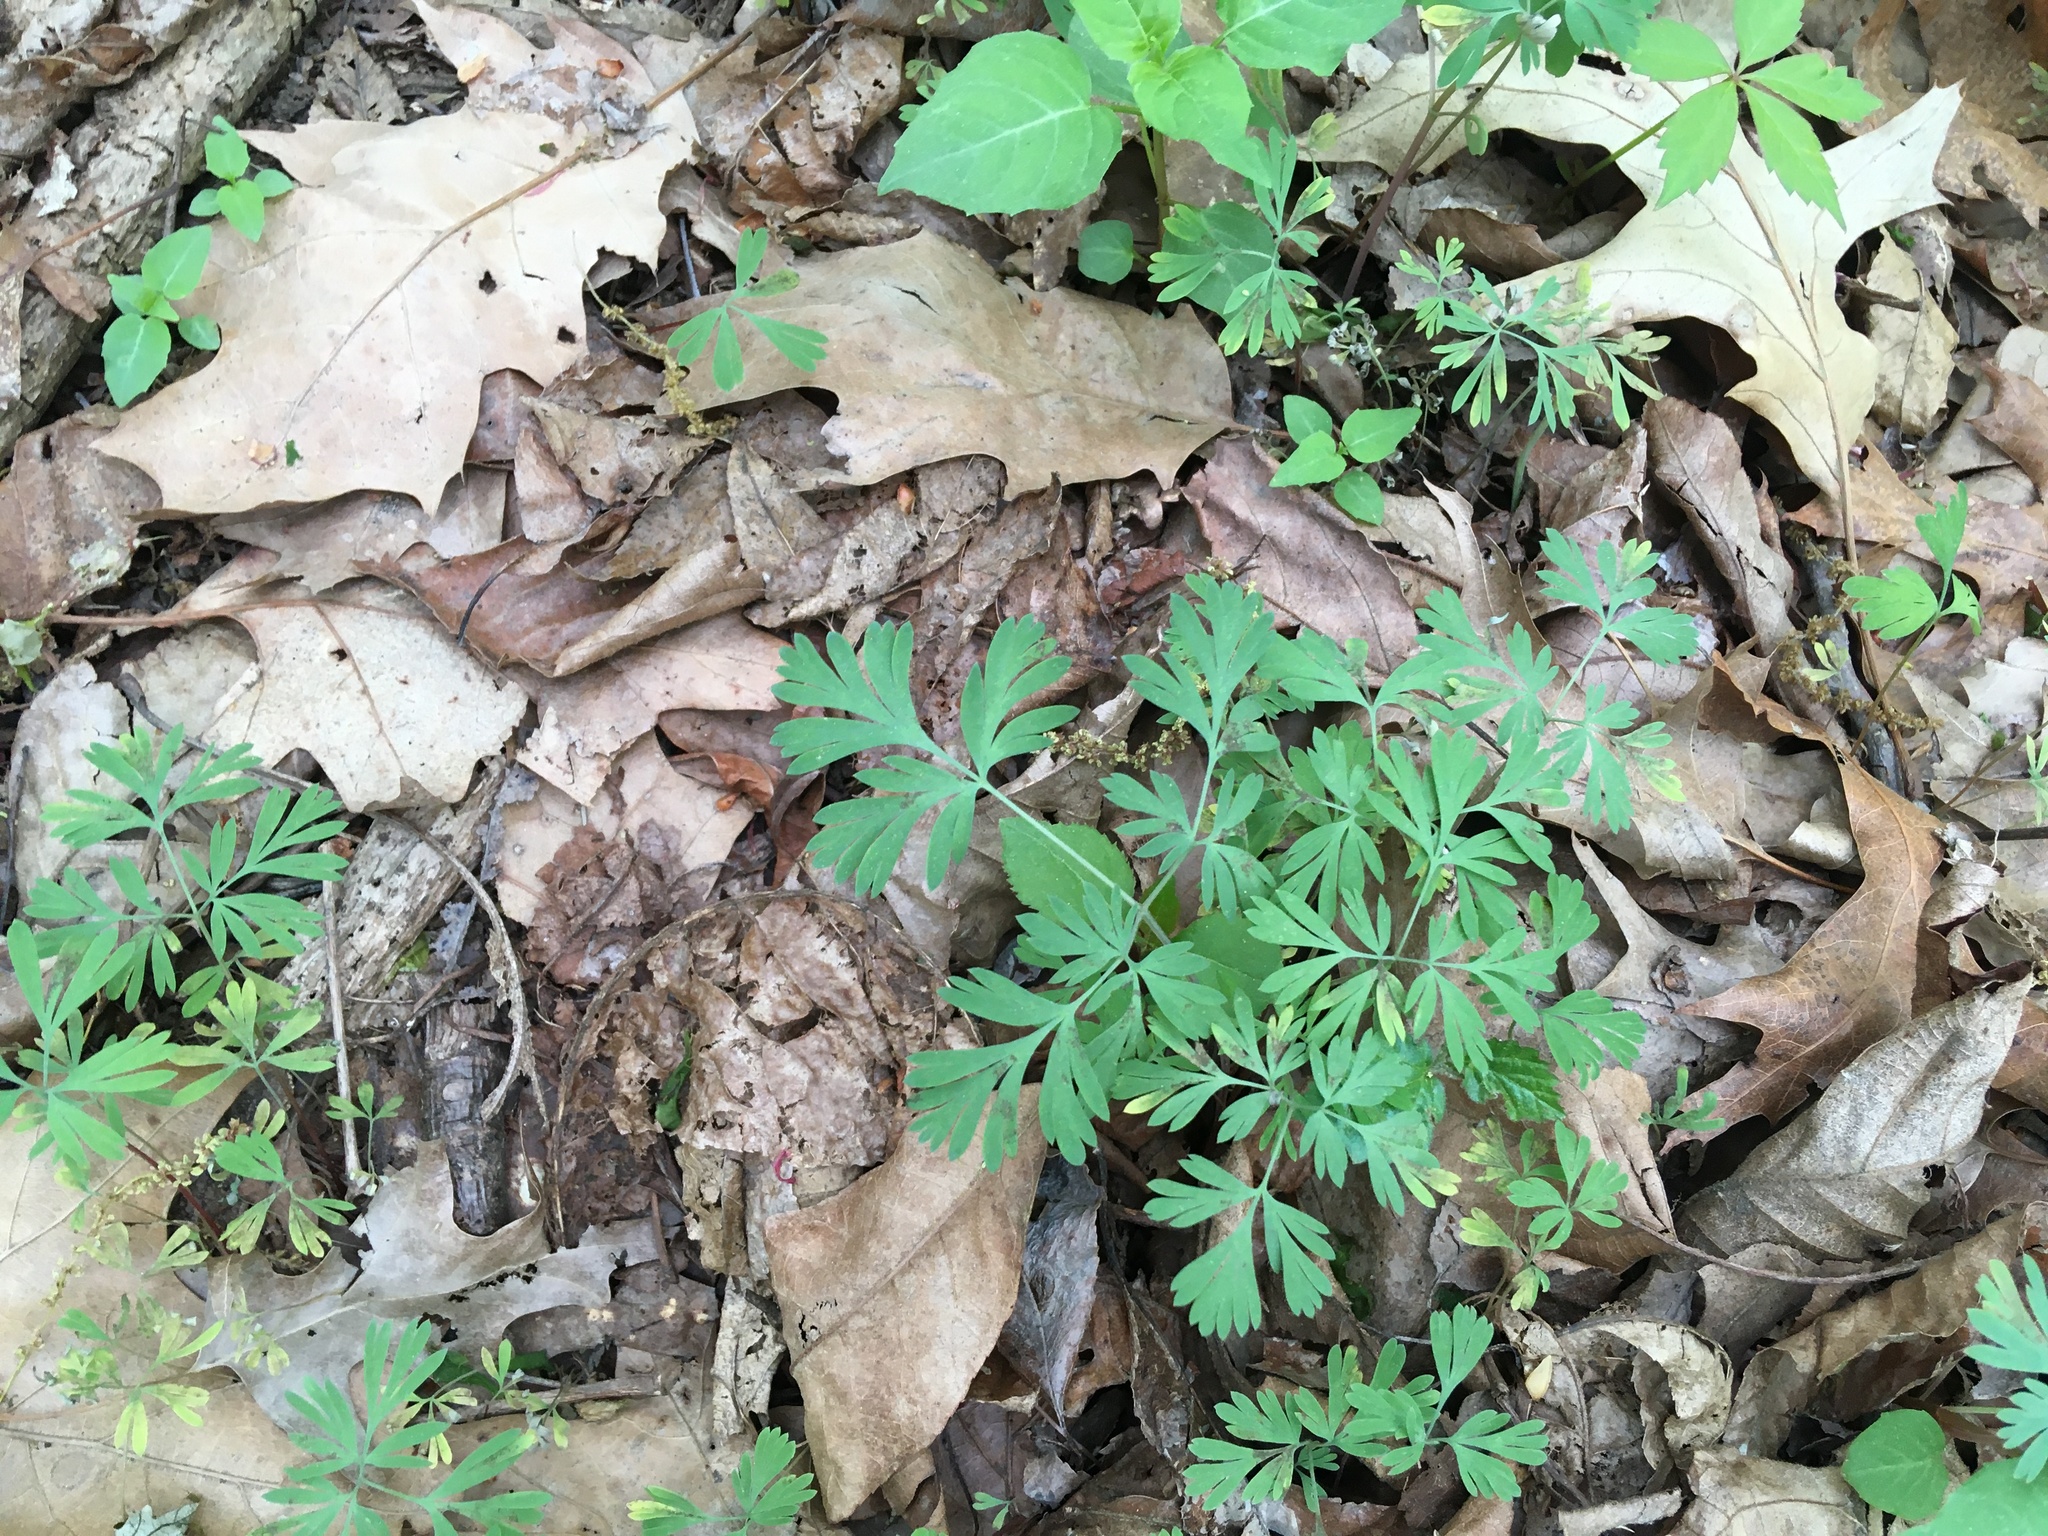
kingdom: Plantae
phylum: Tracheophyta
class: Magnoliopsida
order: Ranunculales
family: Papaveraceae
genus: Dicentra
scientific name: Dicentra cucullaria
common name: Dutchman's breeches
